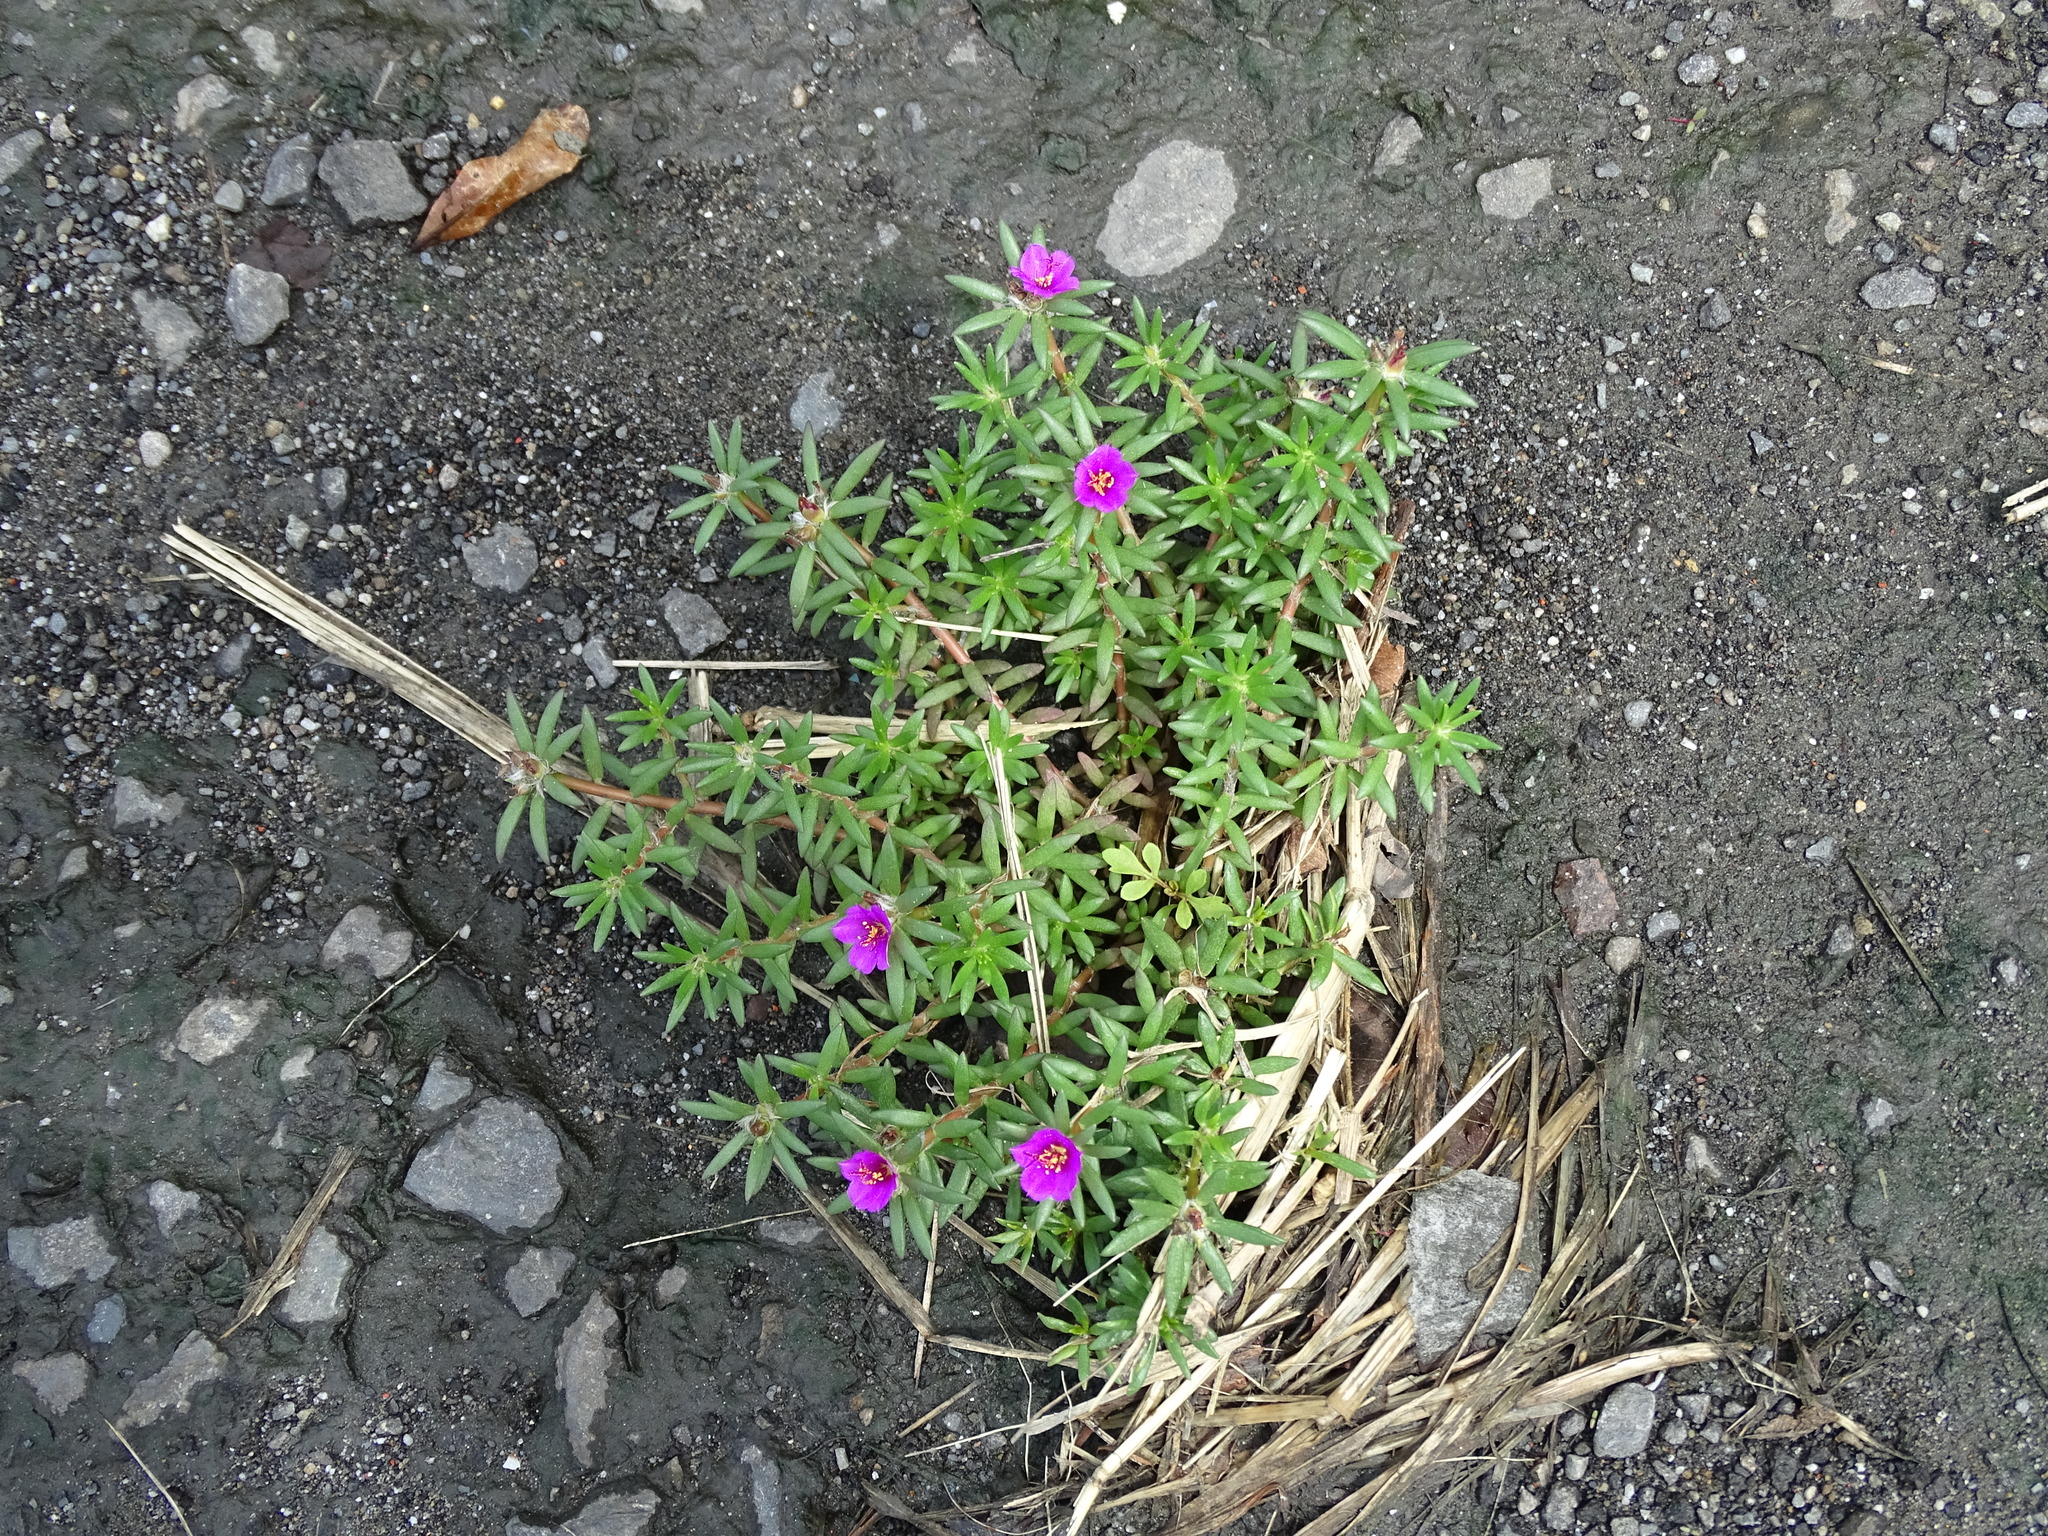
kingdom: Plantae
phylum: Tracheophyta
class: Magnoliopsida
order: Caryophyllales
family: Portulacaceae
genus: Portulaca
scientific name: Portulaca pilosa
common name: Kiss me quick
